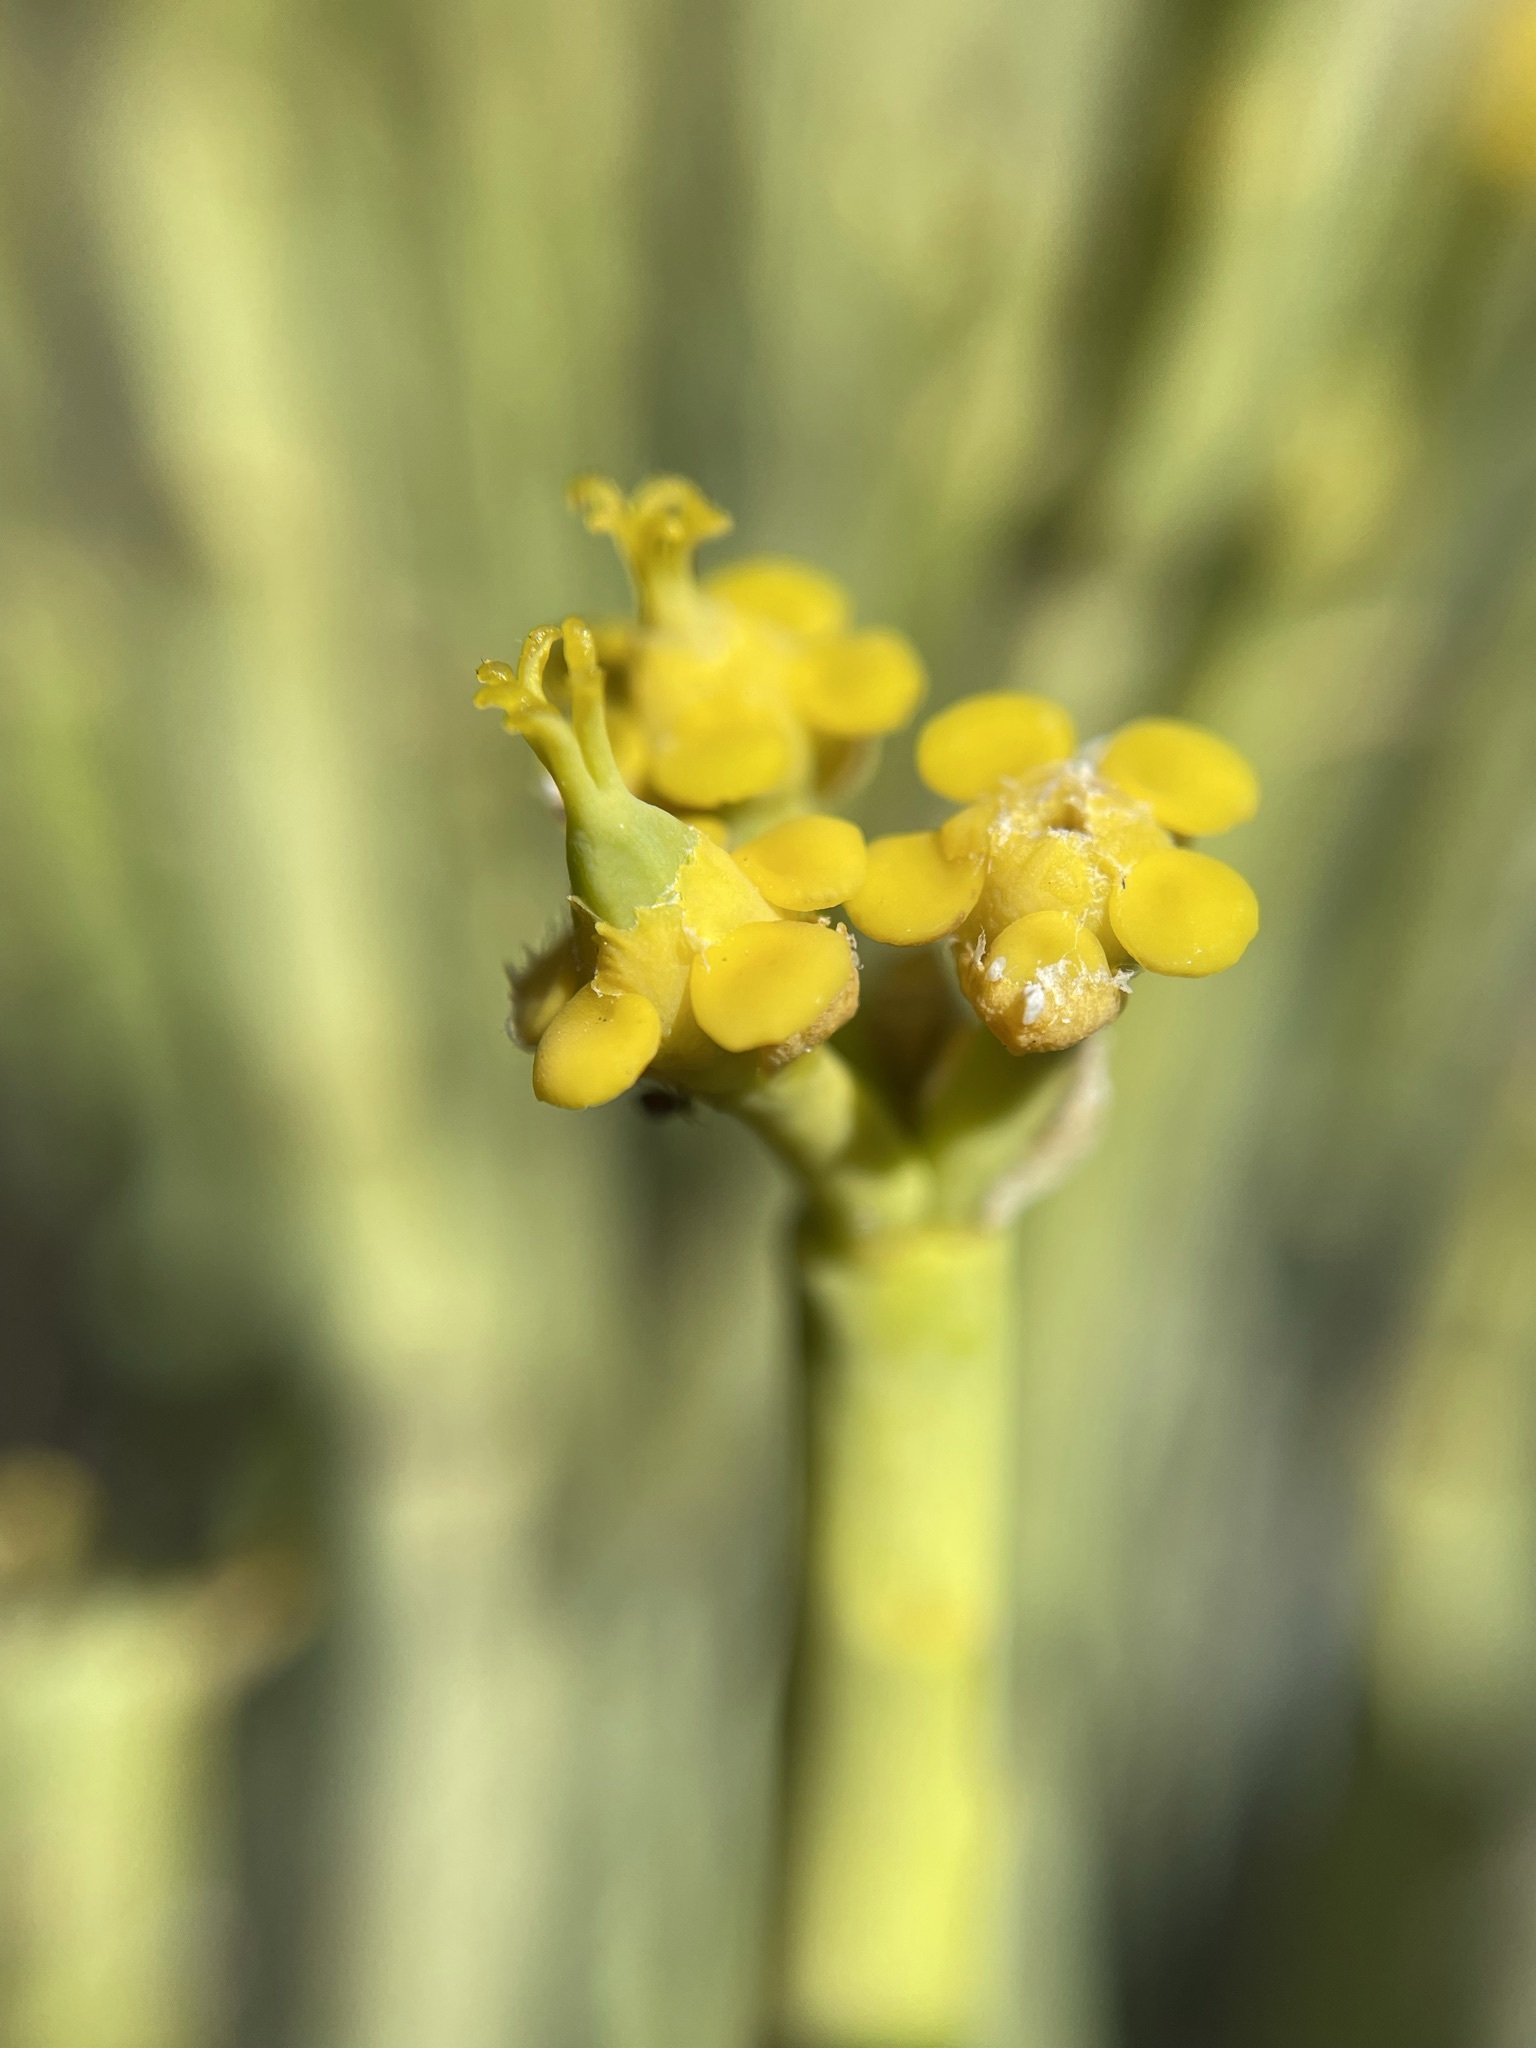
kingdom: Plantae
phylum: Tracheophyta
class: Magnoliopsida
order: Malpighiales
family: Euphorbiaceae
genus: Euphorbia
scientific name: Euphorbia mauritanica
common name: Jackal's-food
